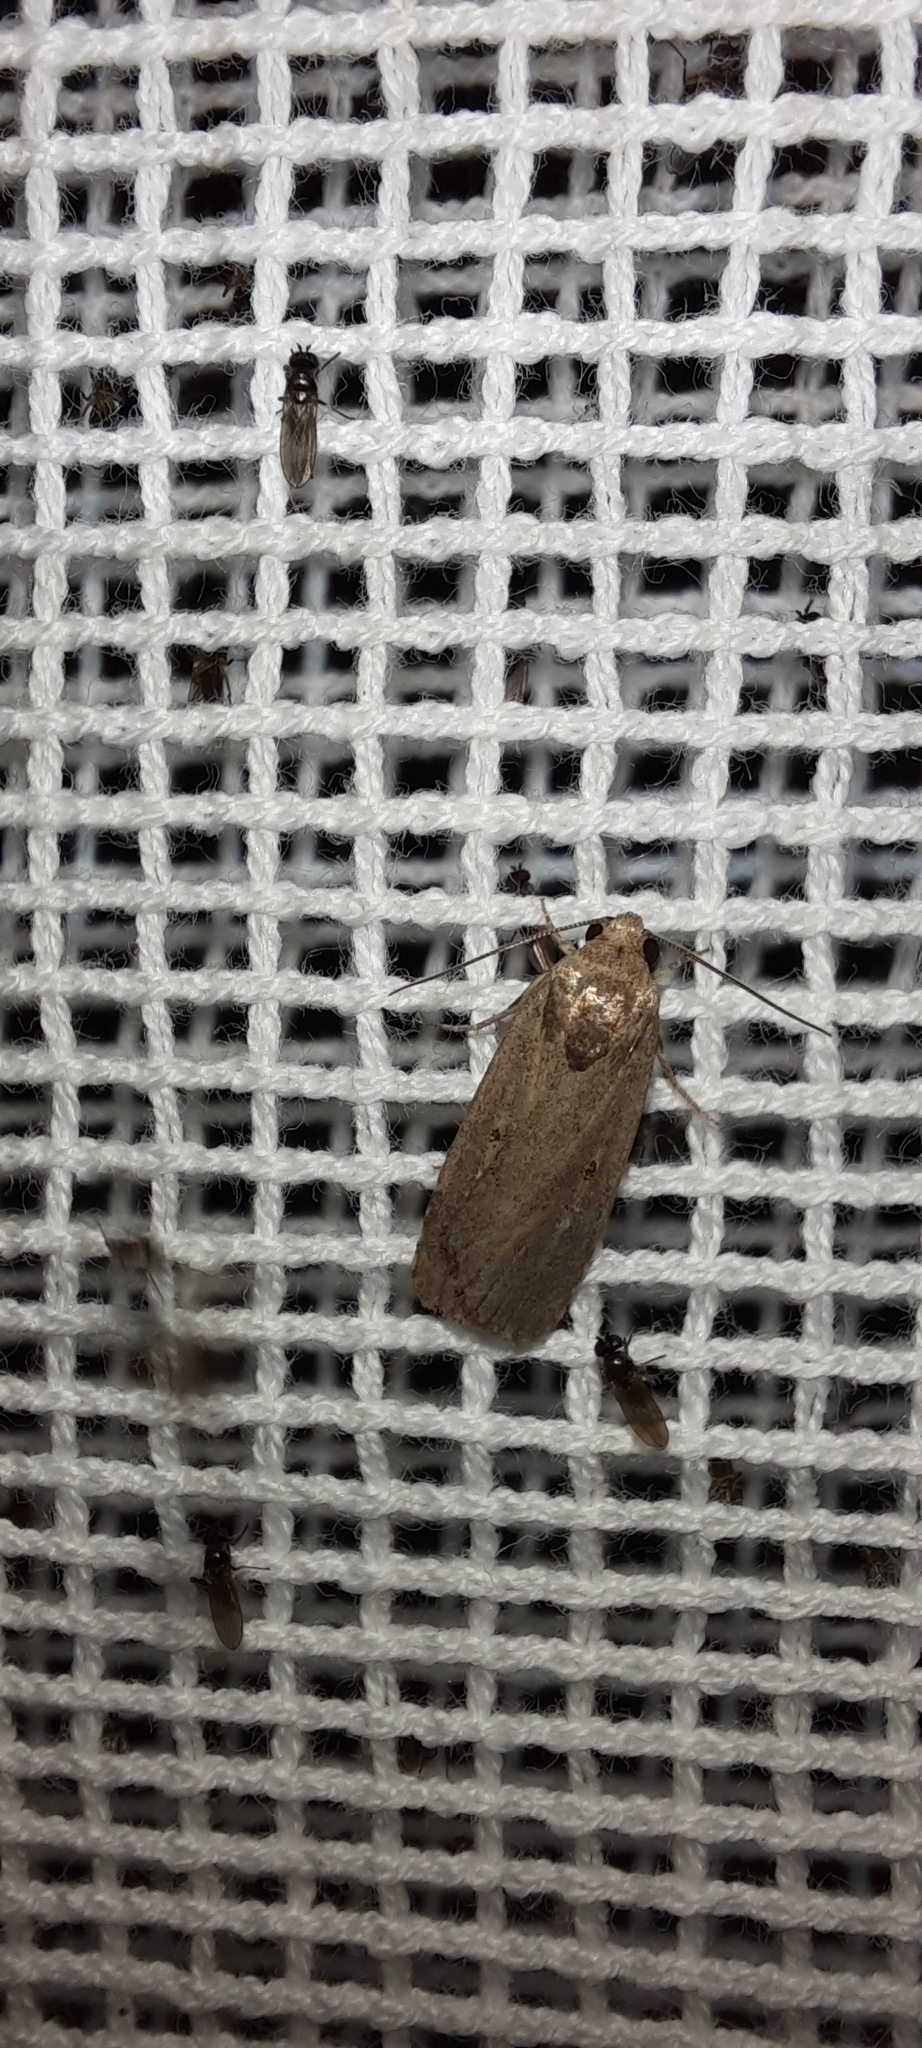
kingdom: Animalia
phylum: Arthropoda
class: Insecta
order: Lepidoptera
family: Noctuidae
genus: Athetis
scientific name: Athetis tenuis
